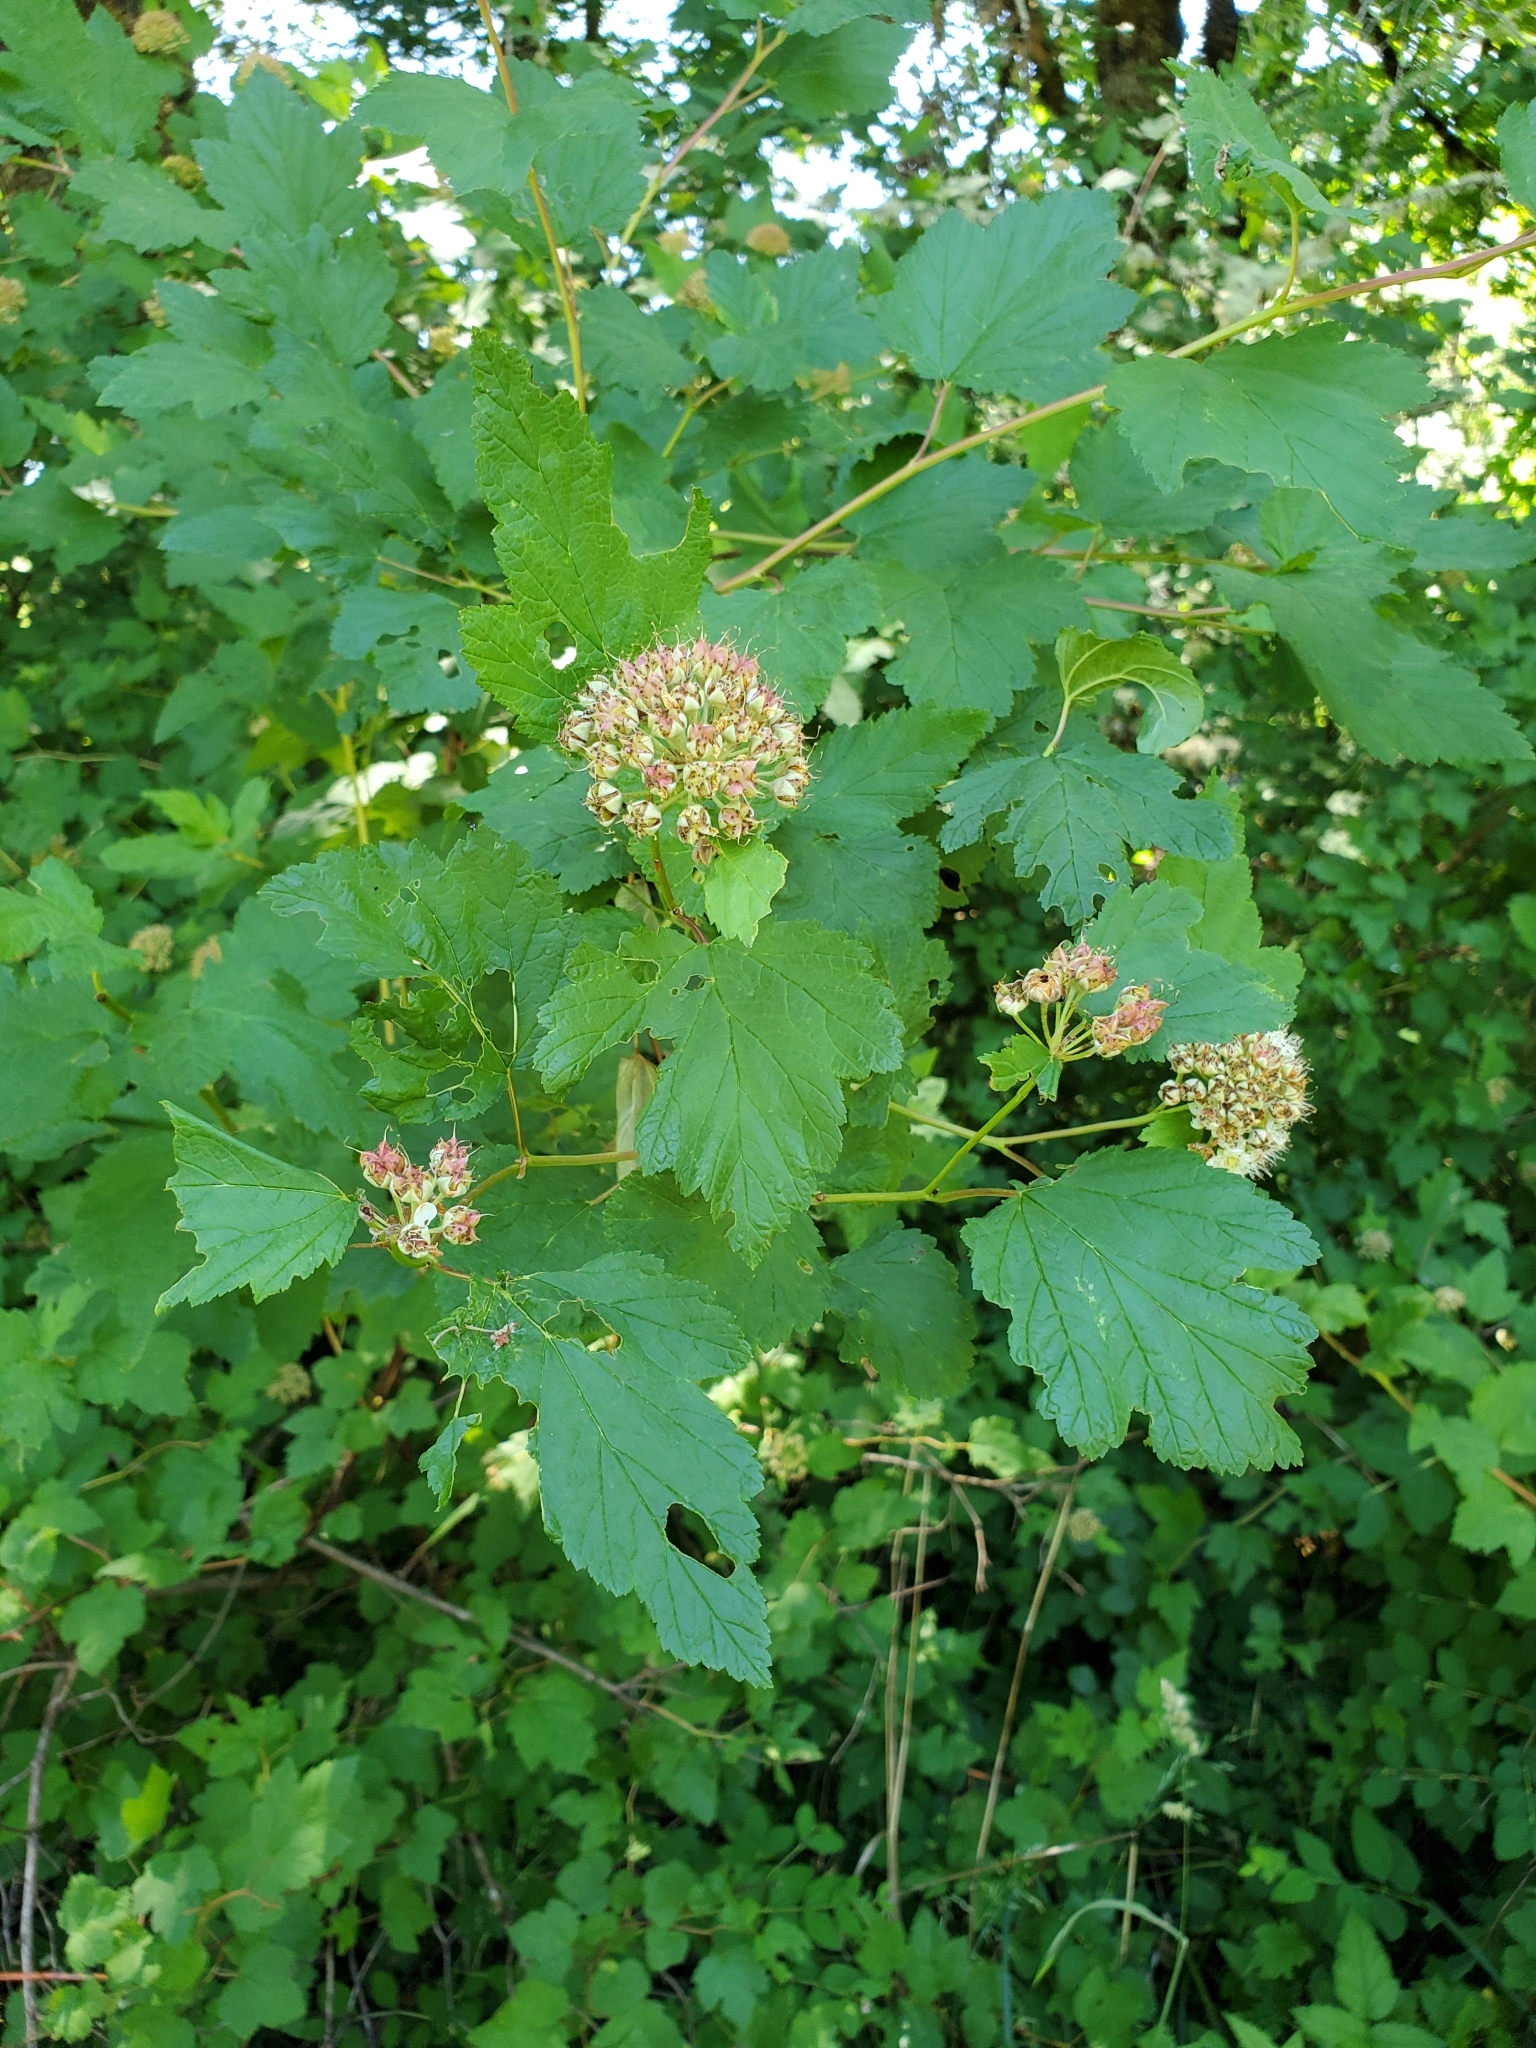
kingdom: Plantae
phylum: Tracheophyta
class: Magnoliopsida
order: Rosales
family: Rosaceae
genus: Physocarpus
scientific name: Physocarpus capitatus
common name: Pacific ninebark
